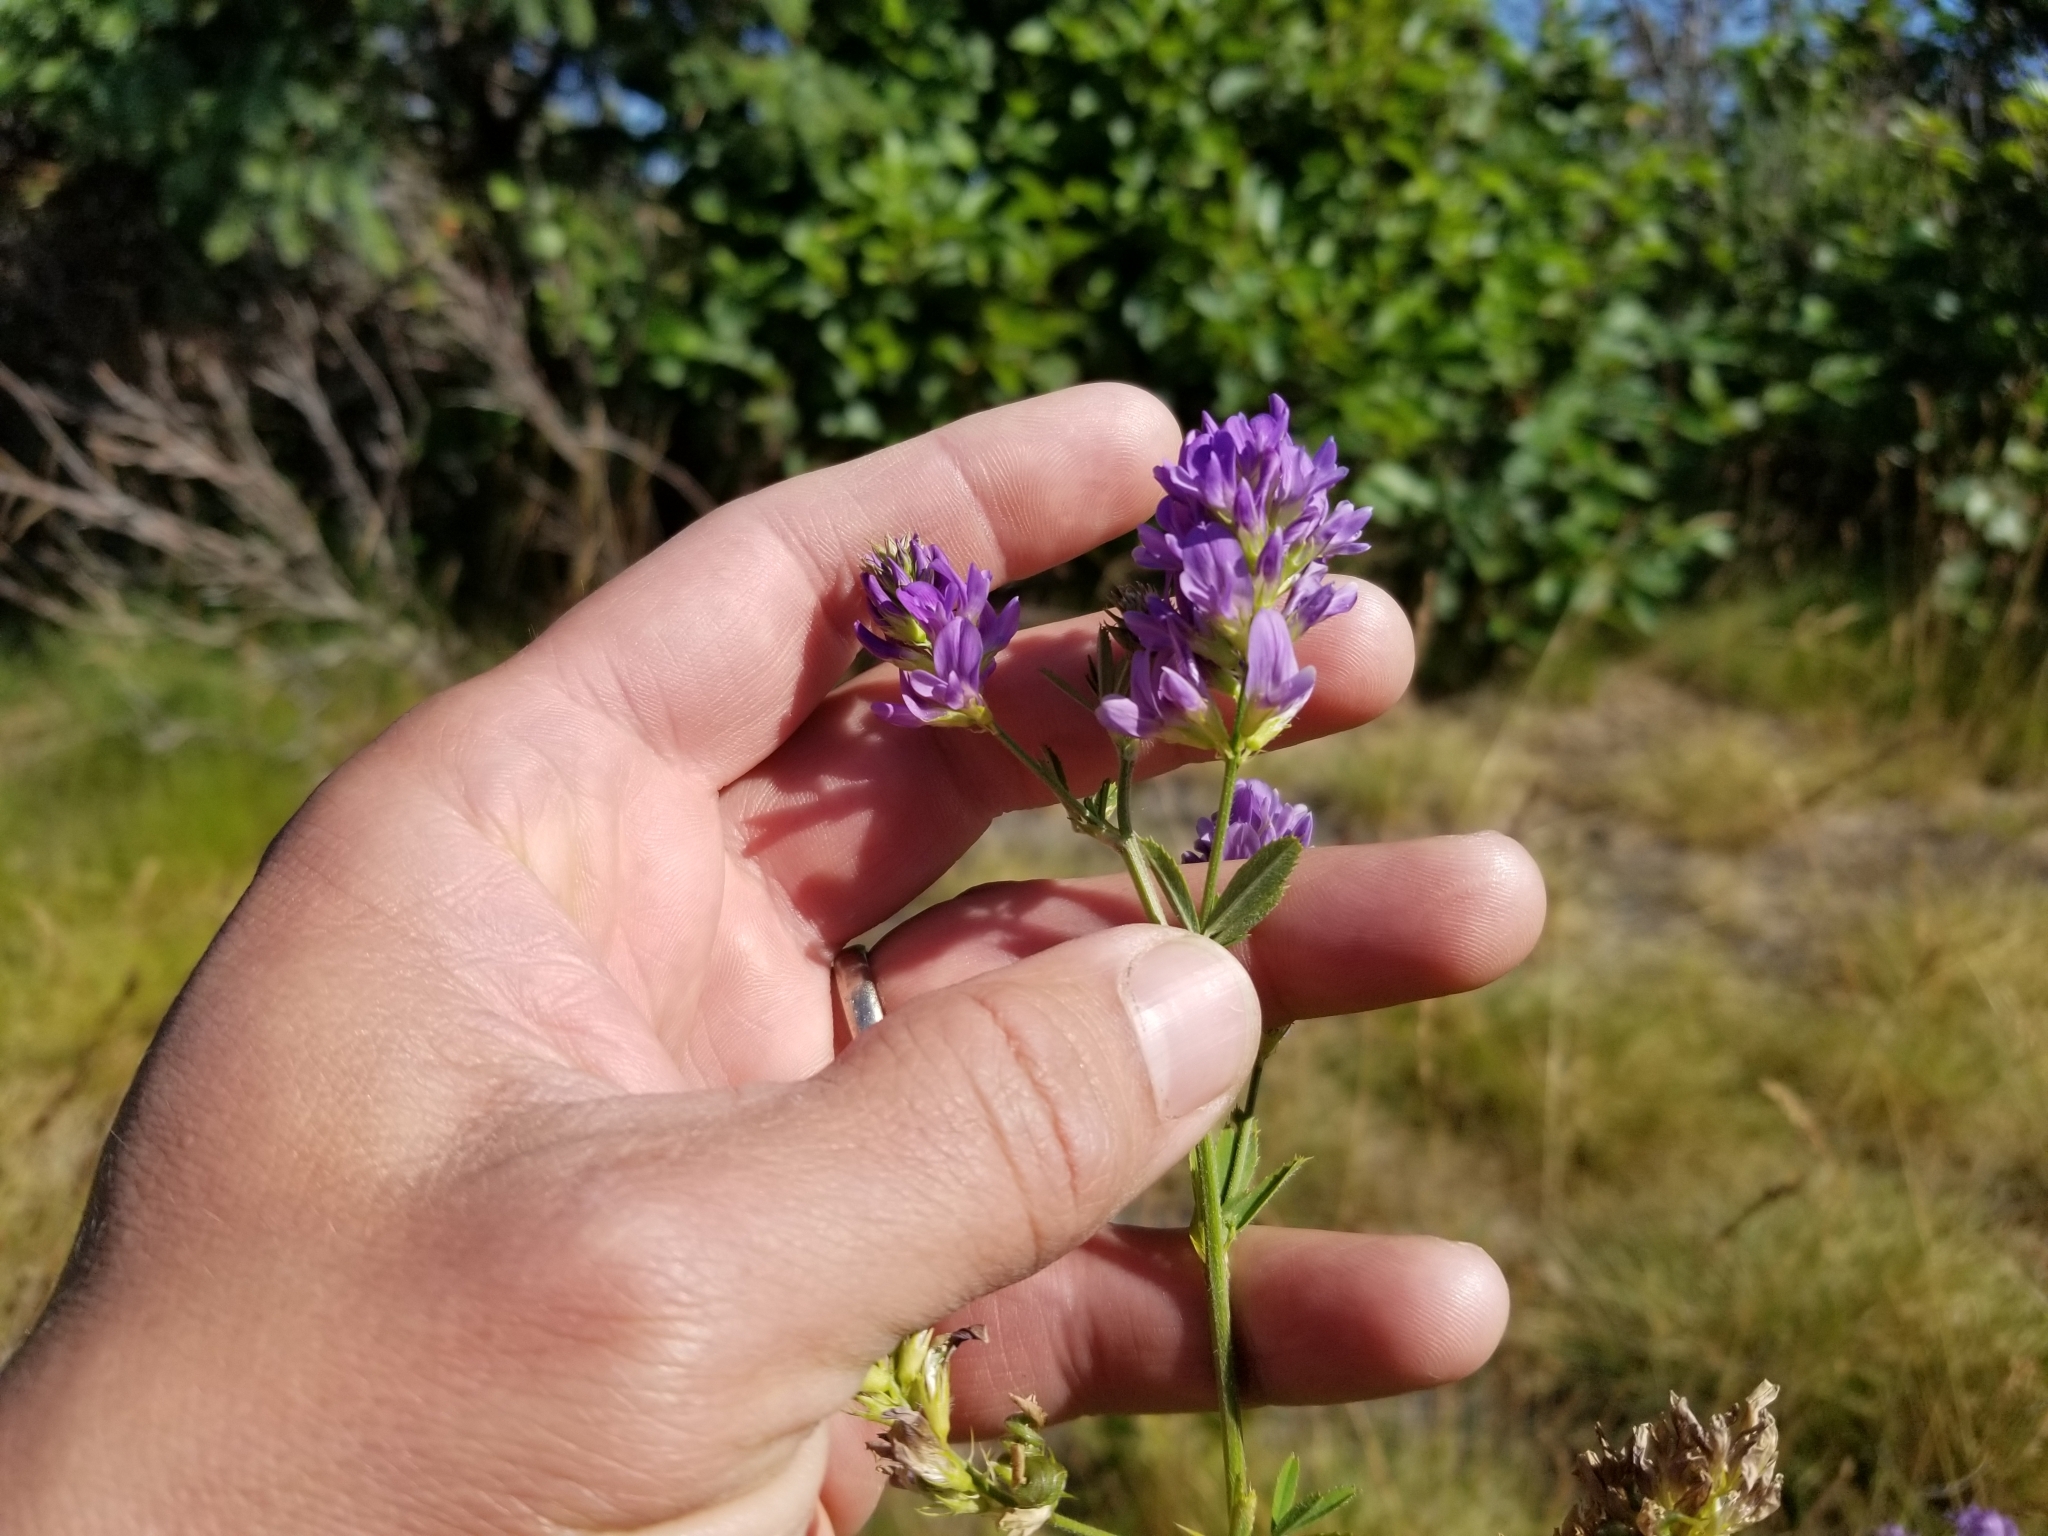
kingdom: Plantae
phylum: Tracheophyta
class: Magnoliopsida
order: Fabales
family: Fabaceae
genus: Medicago
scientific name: Medicago sativa
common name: Alfalfa
